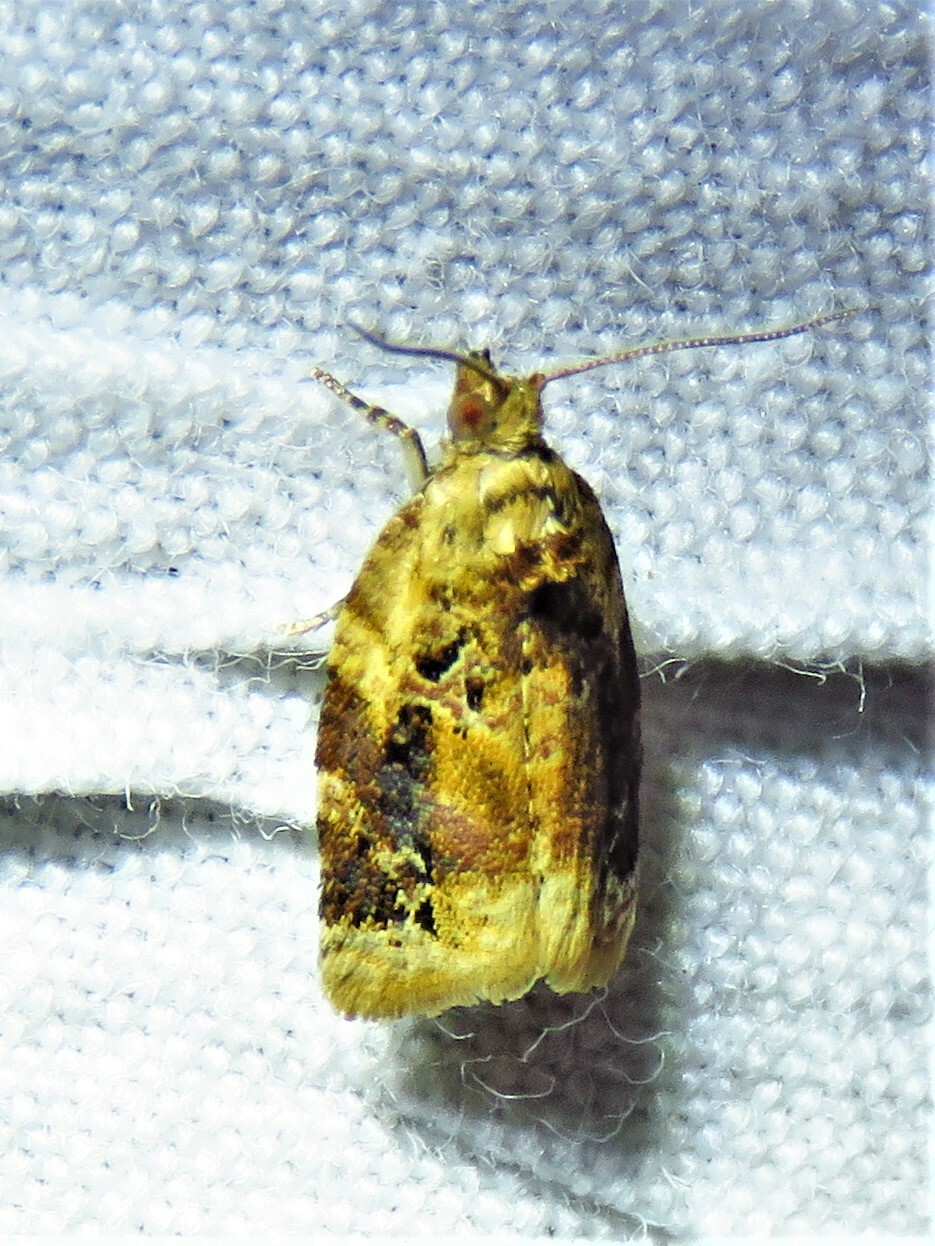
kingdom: Animalia
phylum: Arthropoda
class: Insecta
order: Lepidoptera
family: Tortricidae
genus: Argyrotaenia
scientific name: Argyrotaenia velutinana
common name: Red-banded leafroller moth
